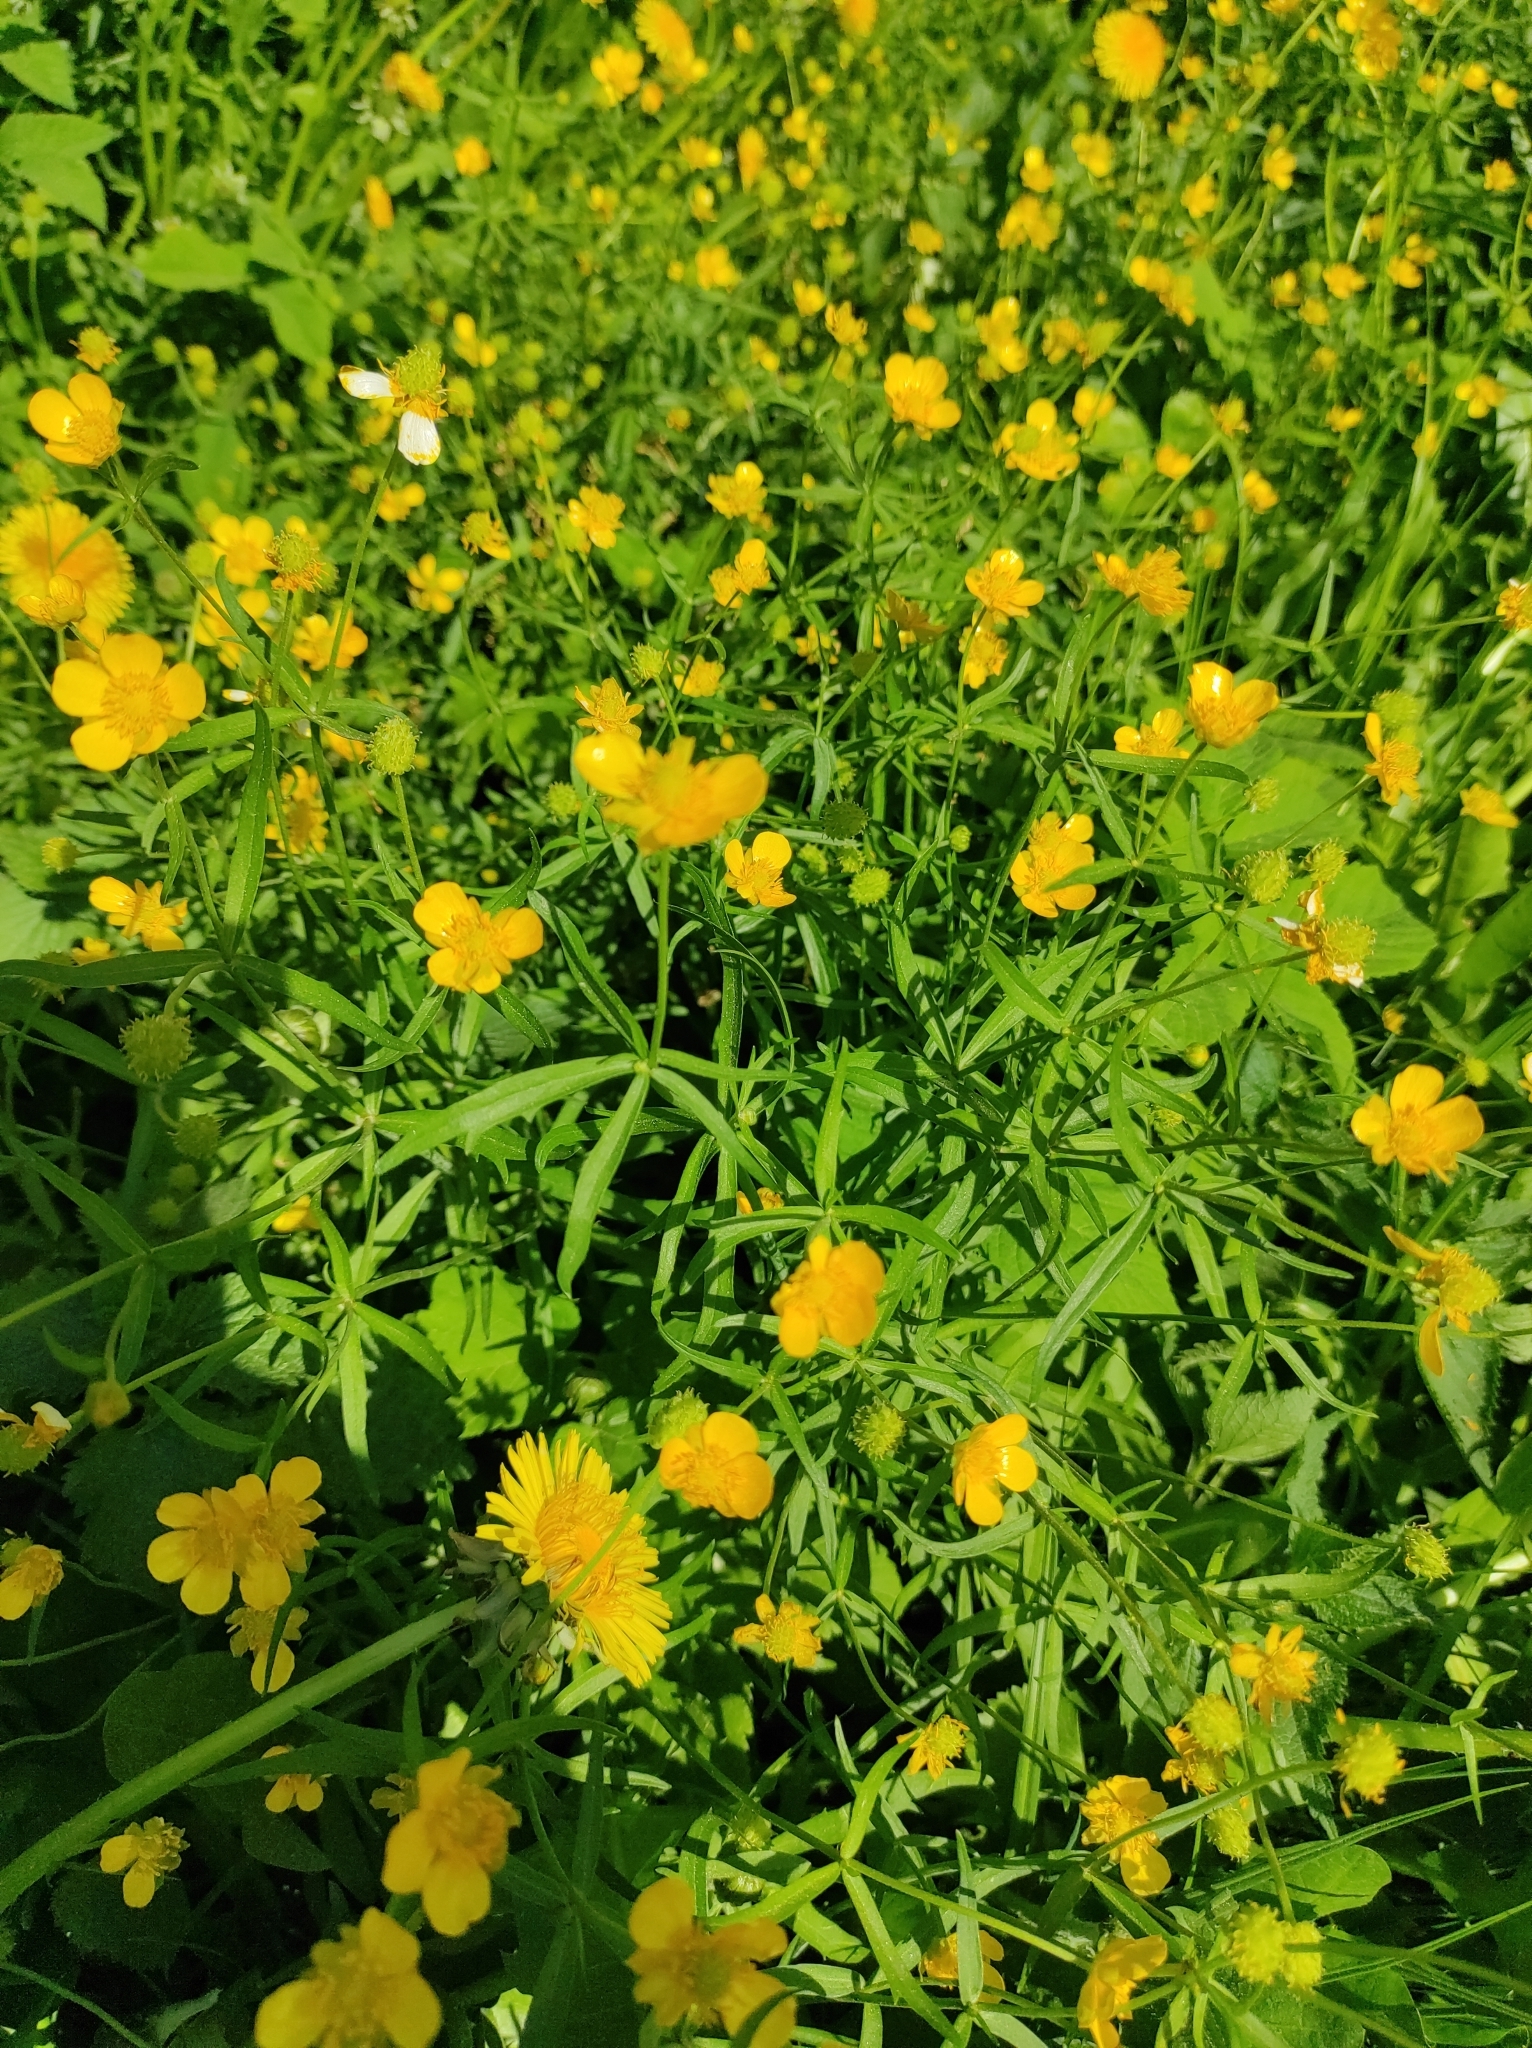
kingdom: Plantae
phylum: Tracheophyta
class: Magnoliopsida
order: Ranunculales
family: Ranunculaceae
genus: Ranunculus
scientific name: Ranunculus auricomus
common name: Goldilocks buttercup
